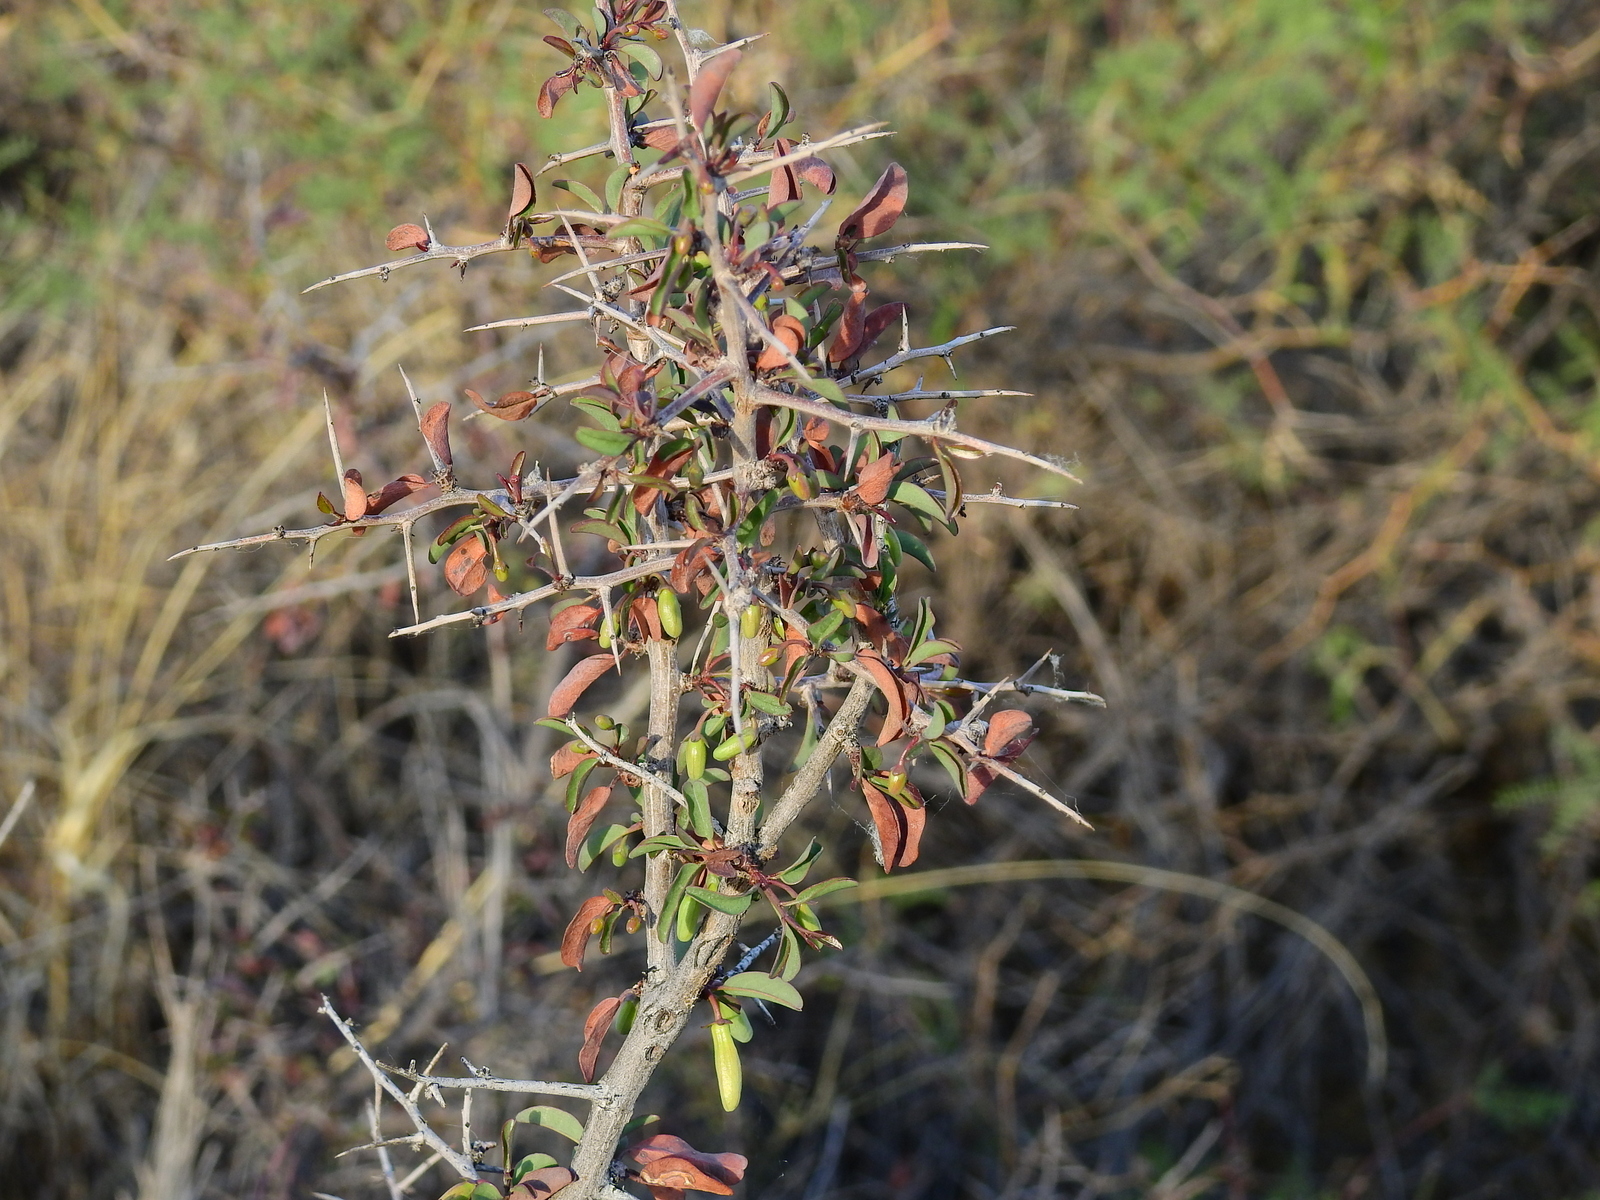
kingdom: Plantae
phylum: Tracheophyta
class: Magnoliopsida
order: Santalales
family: Ximeniaceae
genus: Ximenia
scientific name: Ximenia americana
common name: Tallowwood
